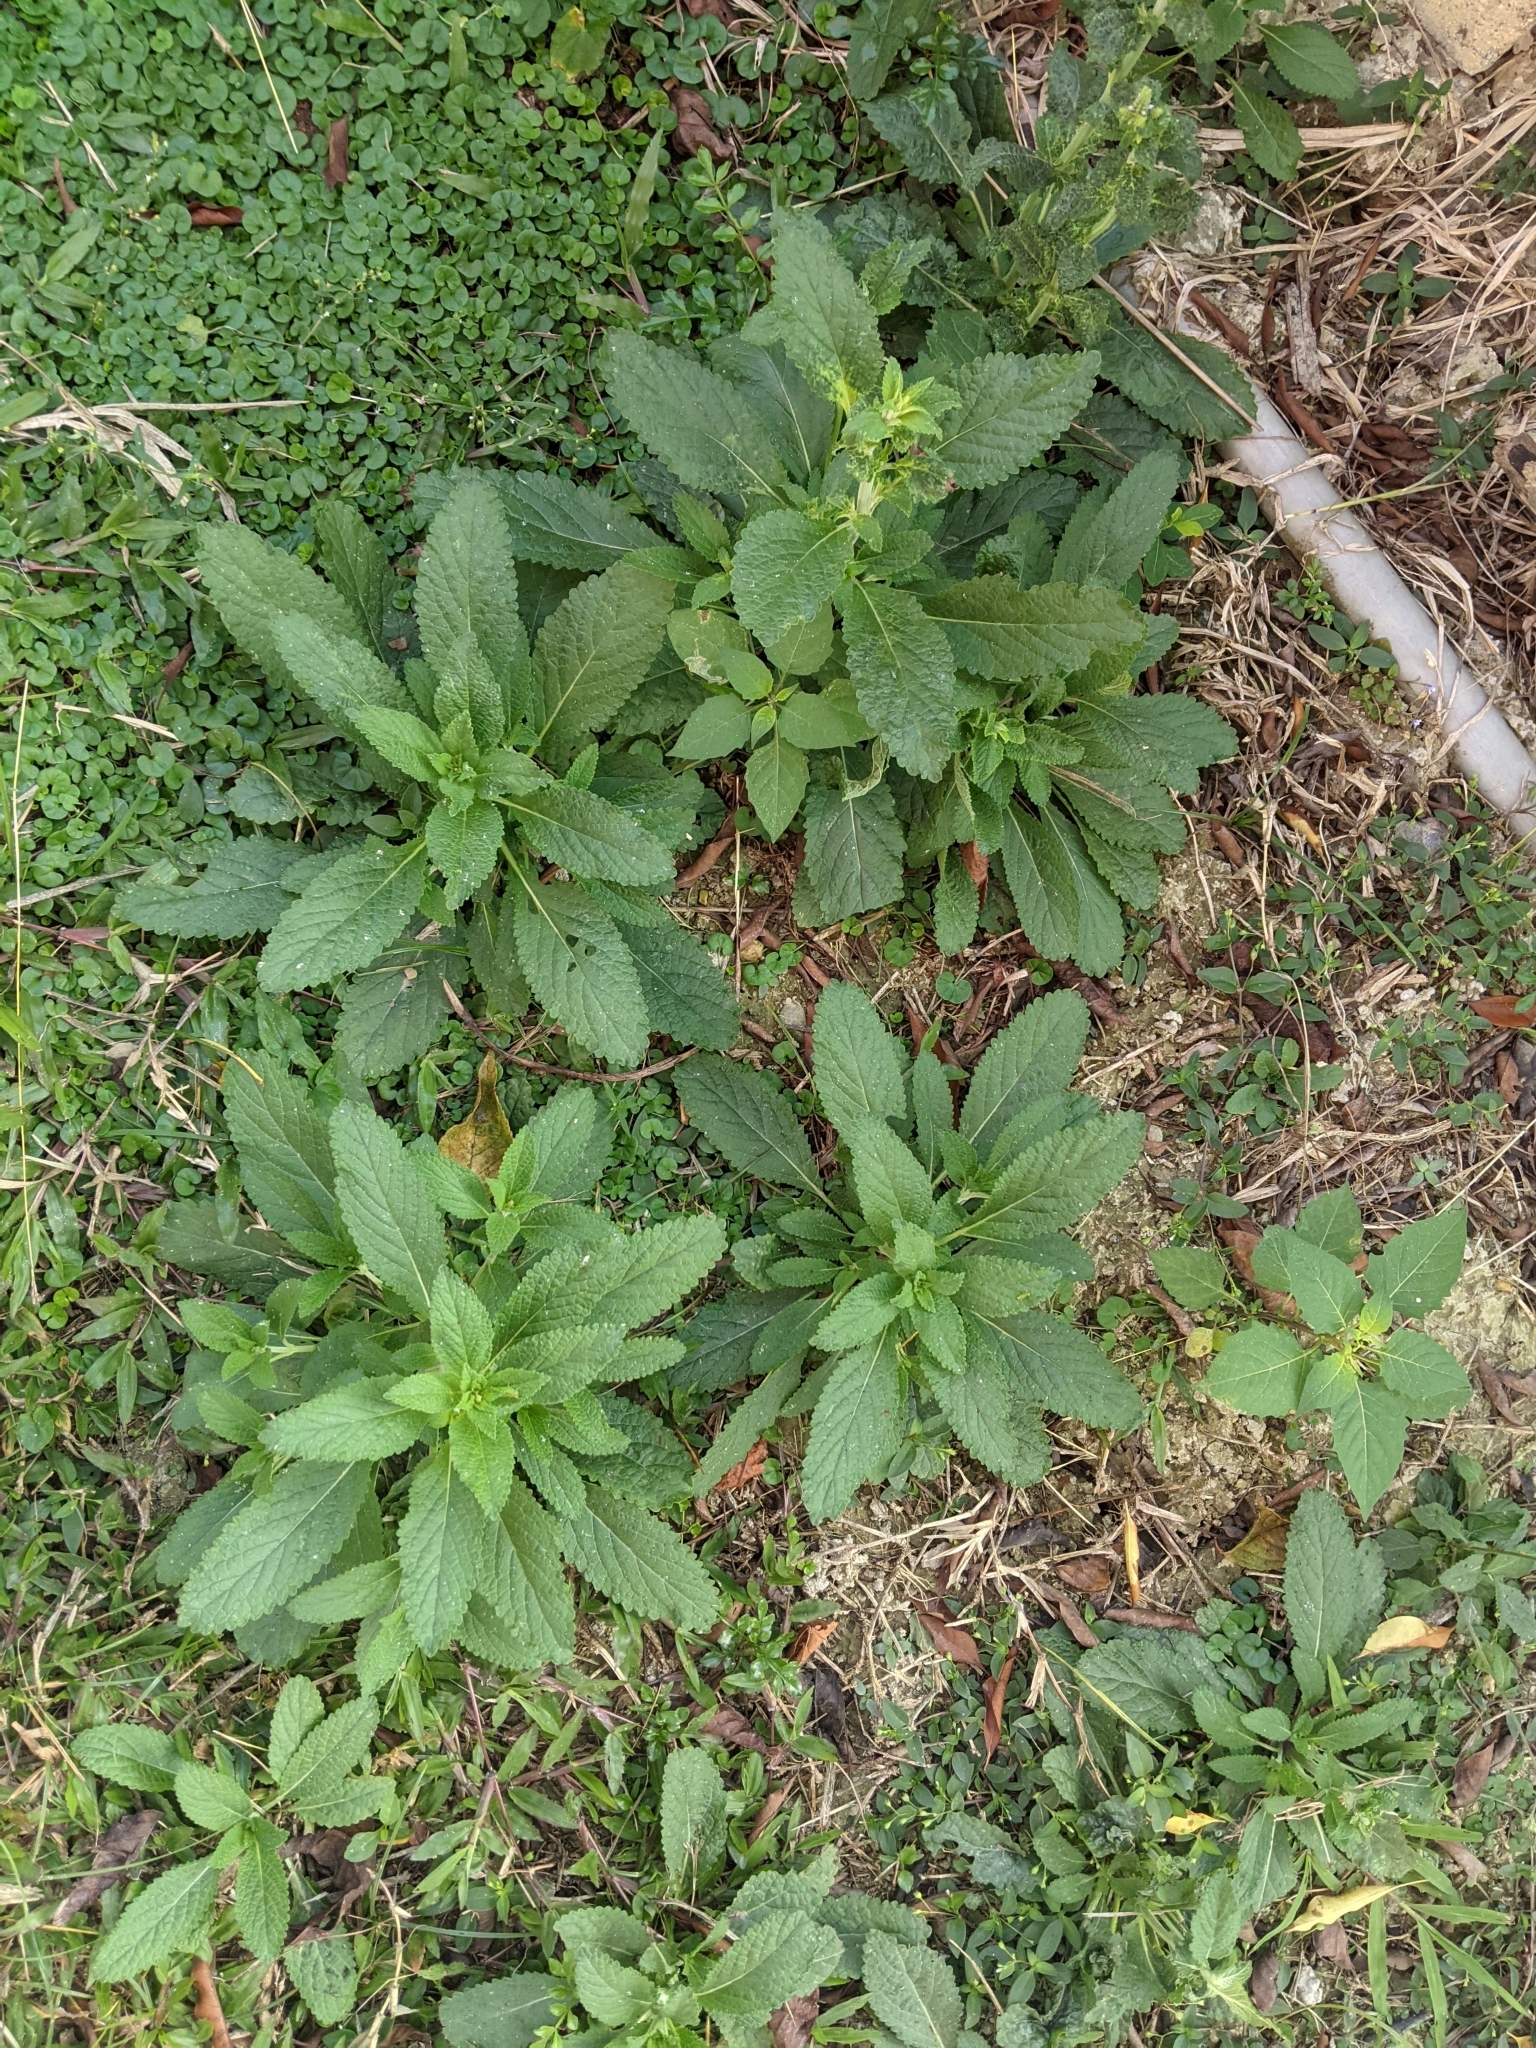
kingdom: Plantae
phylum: Tracheophyta
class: Magnoliopsida
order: Lamiales
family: Lamiaceae
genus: Salvia
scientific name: Salvia plebeia
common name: Australian sage
